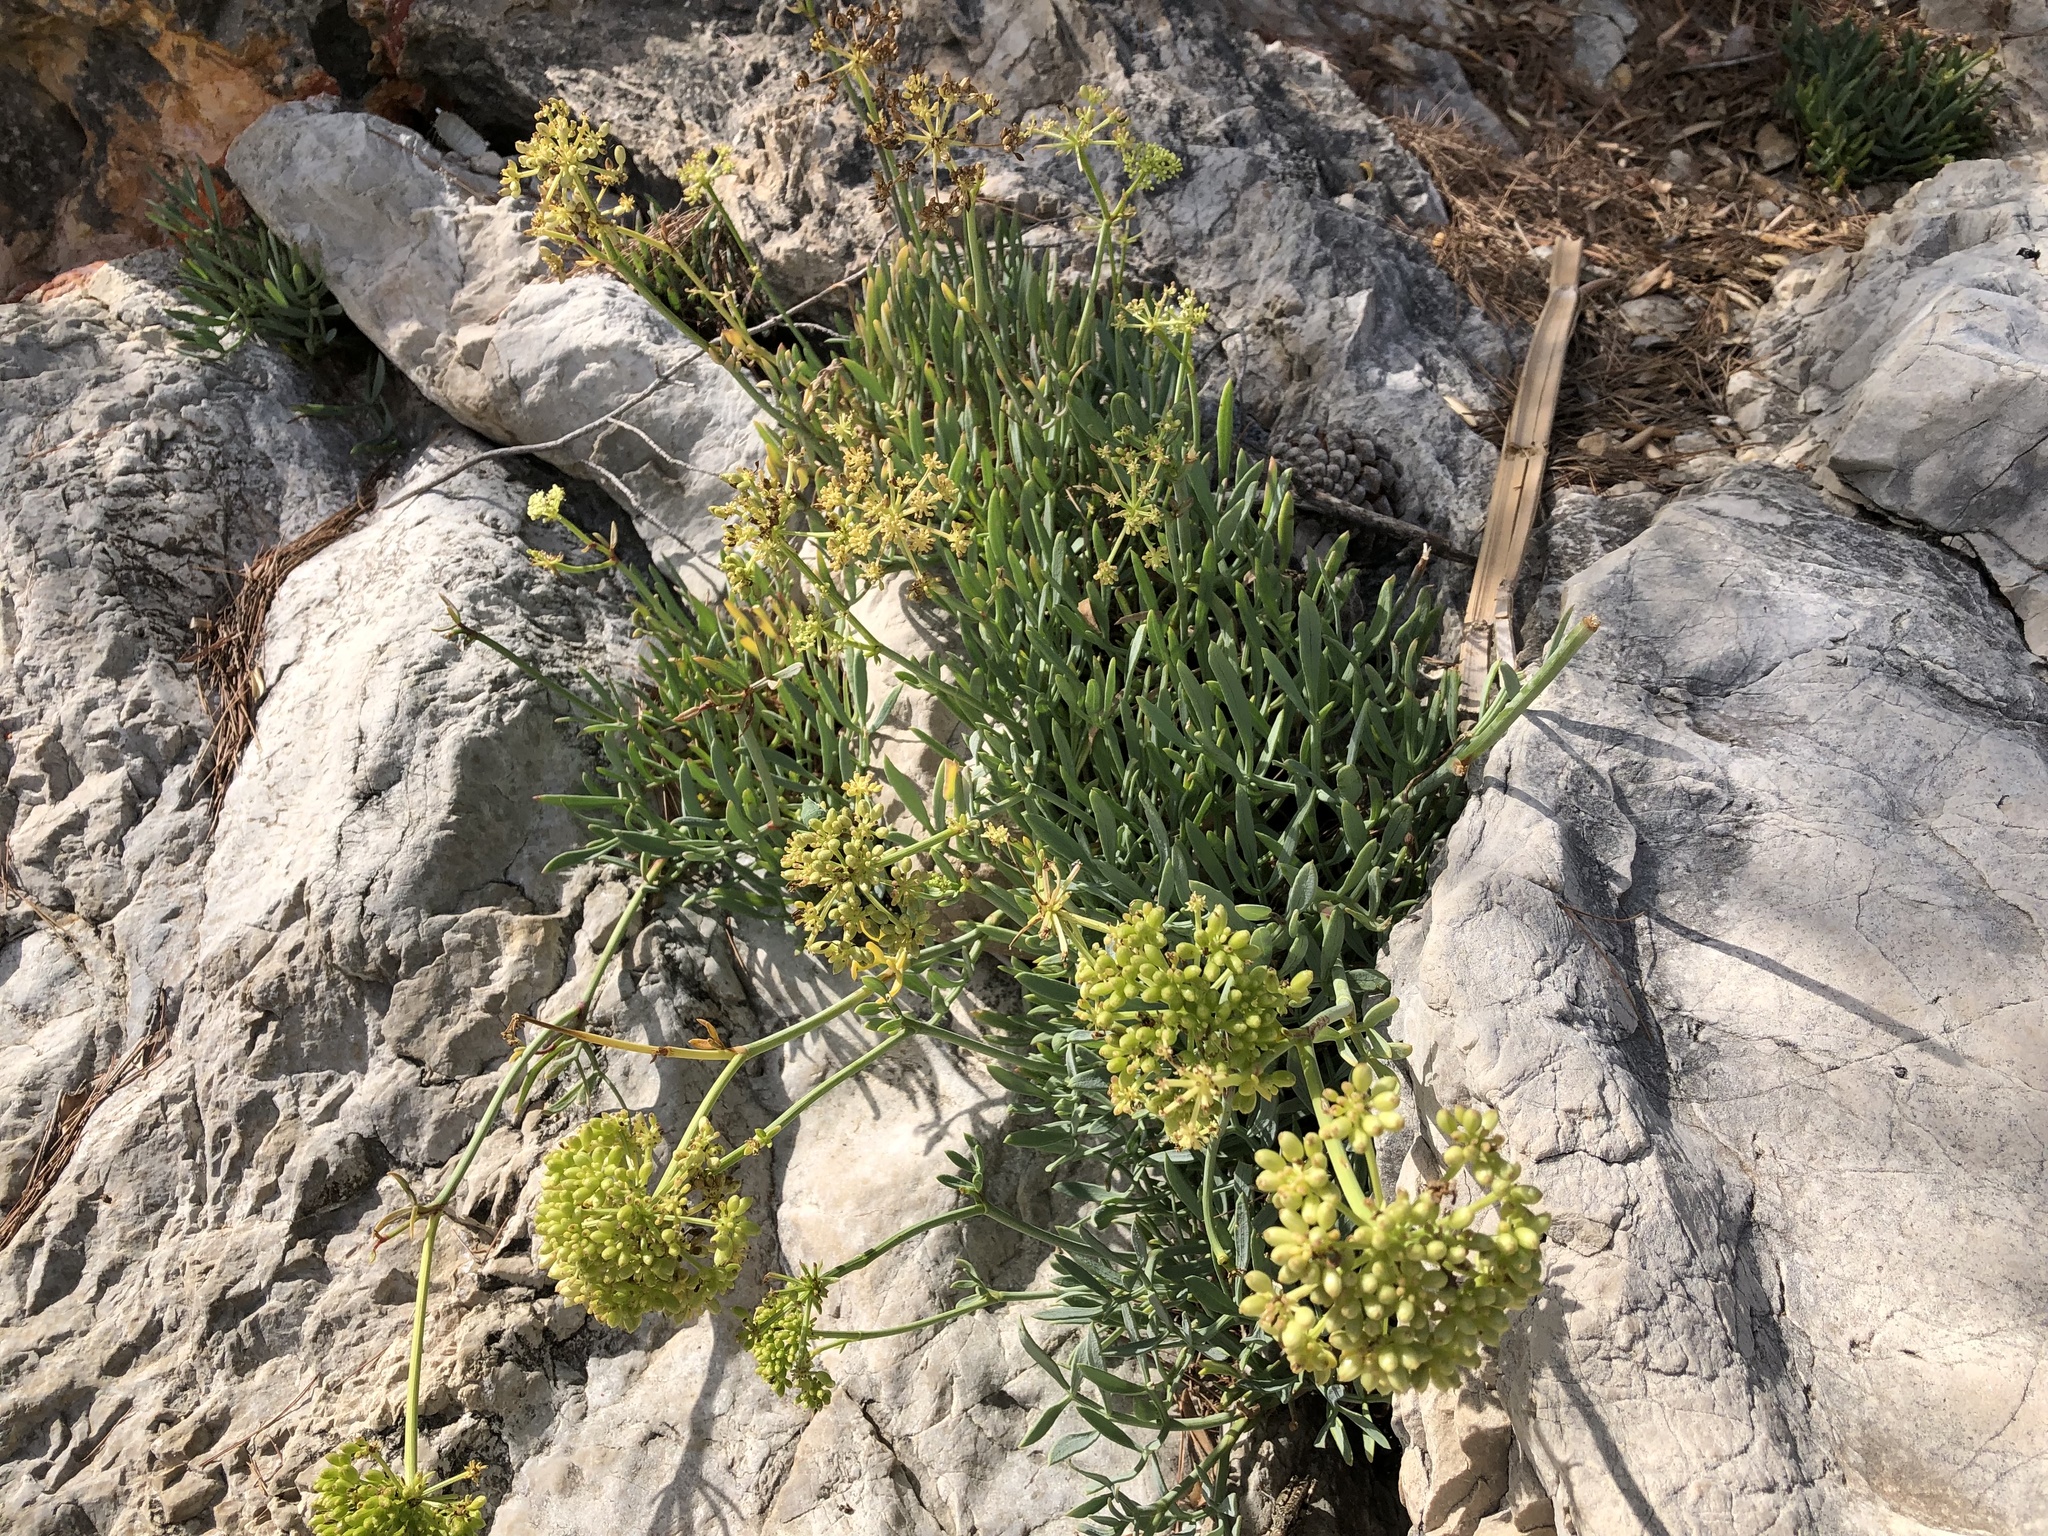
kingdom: Plantae
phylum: Tracheophyta
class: Magnoliopsida
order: Apiales
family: Apiaceae
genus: Crithmum
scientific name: Crithmum maritimum
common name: Rock samphire
